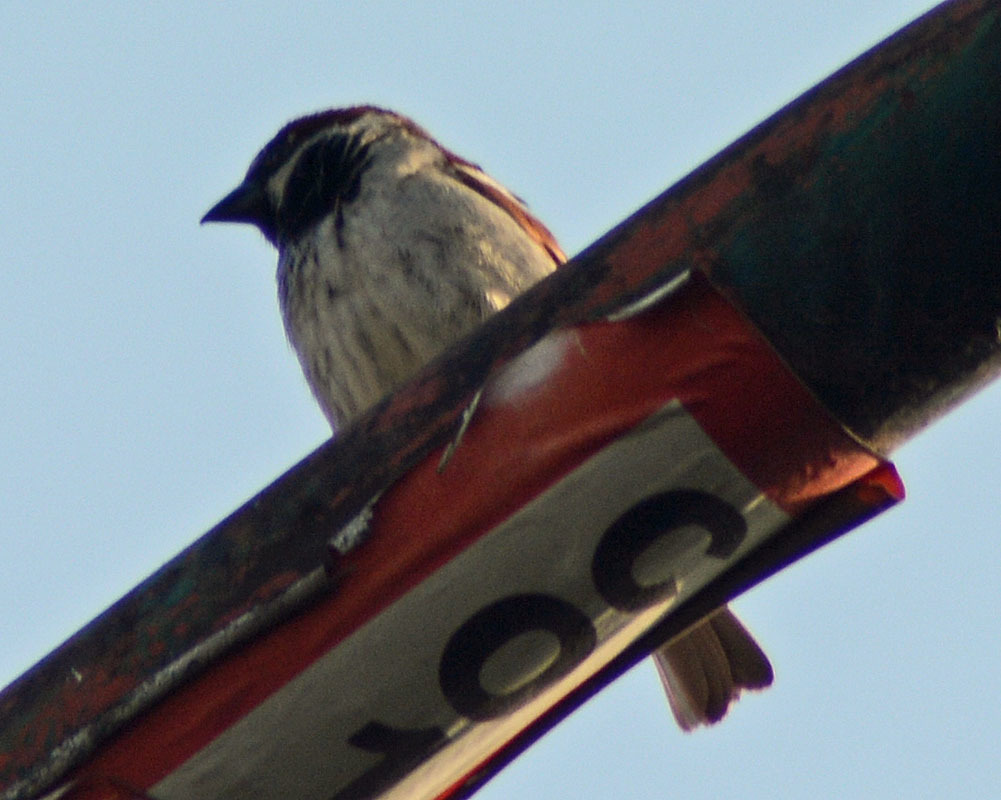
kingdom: Animalia
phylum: Chordata
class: Aves
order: Passeriformes
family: Passeridae
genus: Passer
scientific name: Passer domesticus
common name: House sparrow
